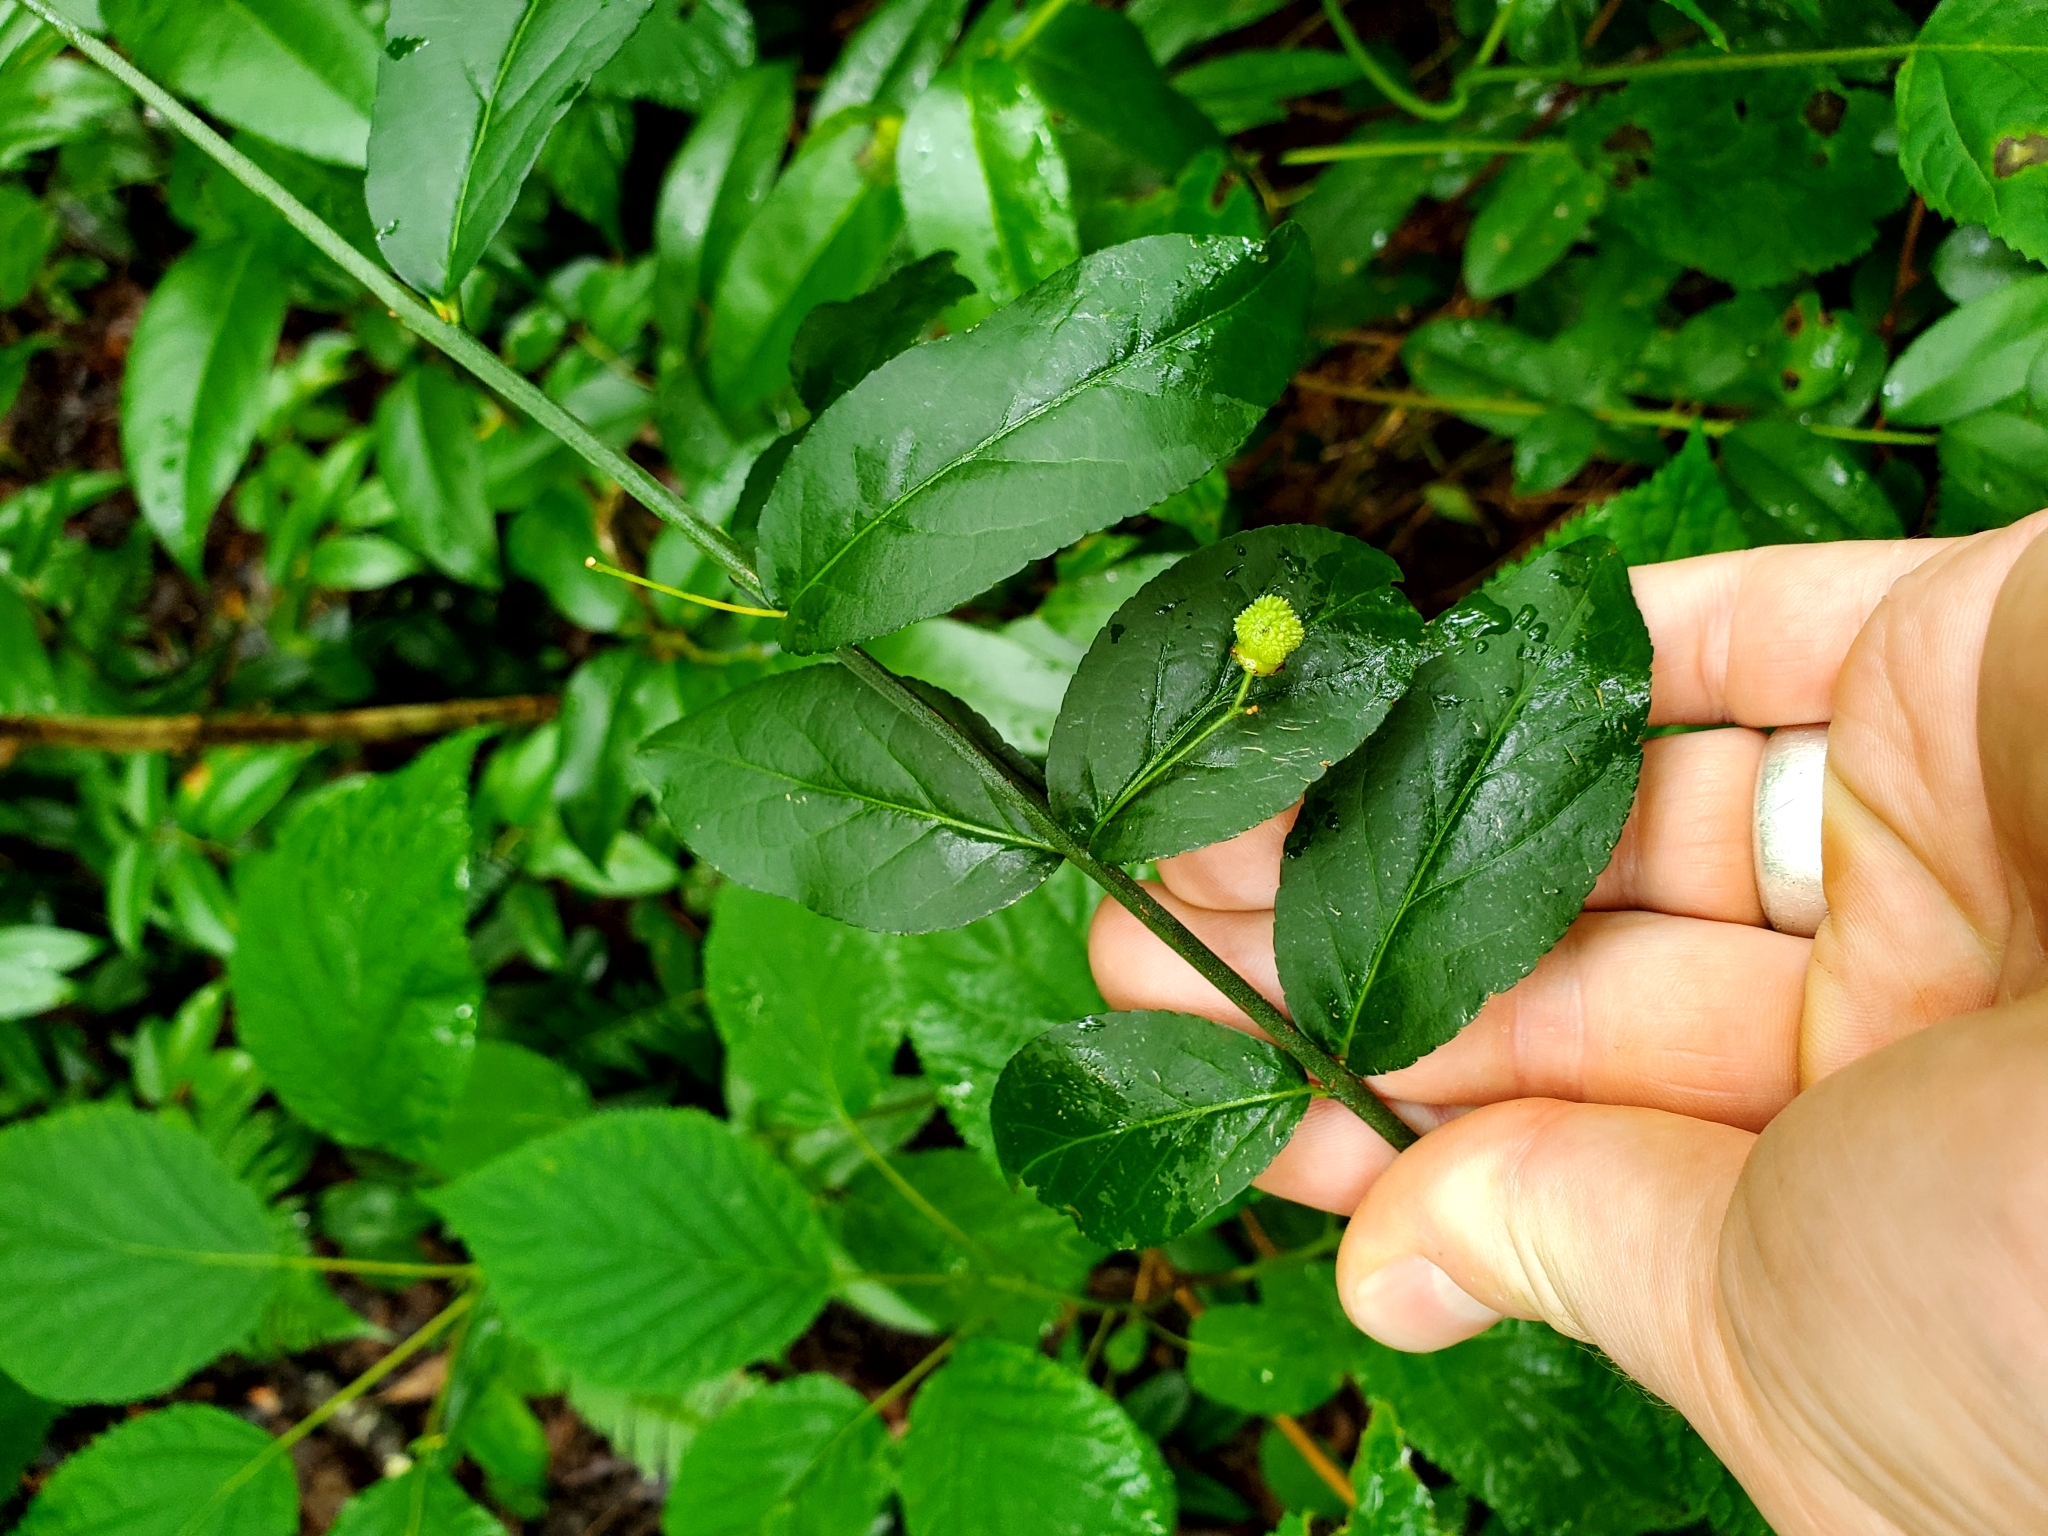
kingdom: Plantae
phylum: Tracheophyta
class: Magnoliopsida
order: Celastrales
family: Celastraceae
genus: Euonymus
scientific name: Euonymus americanus
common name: Bursting-heart
